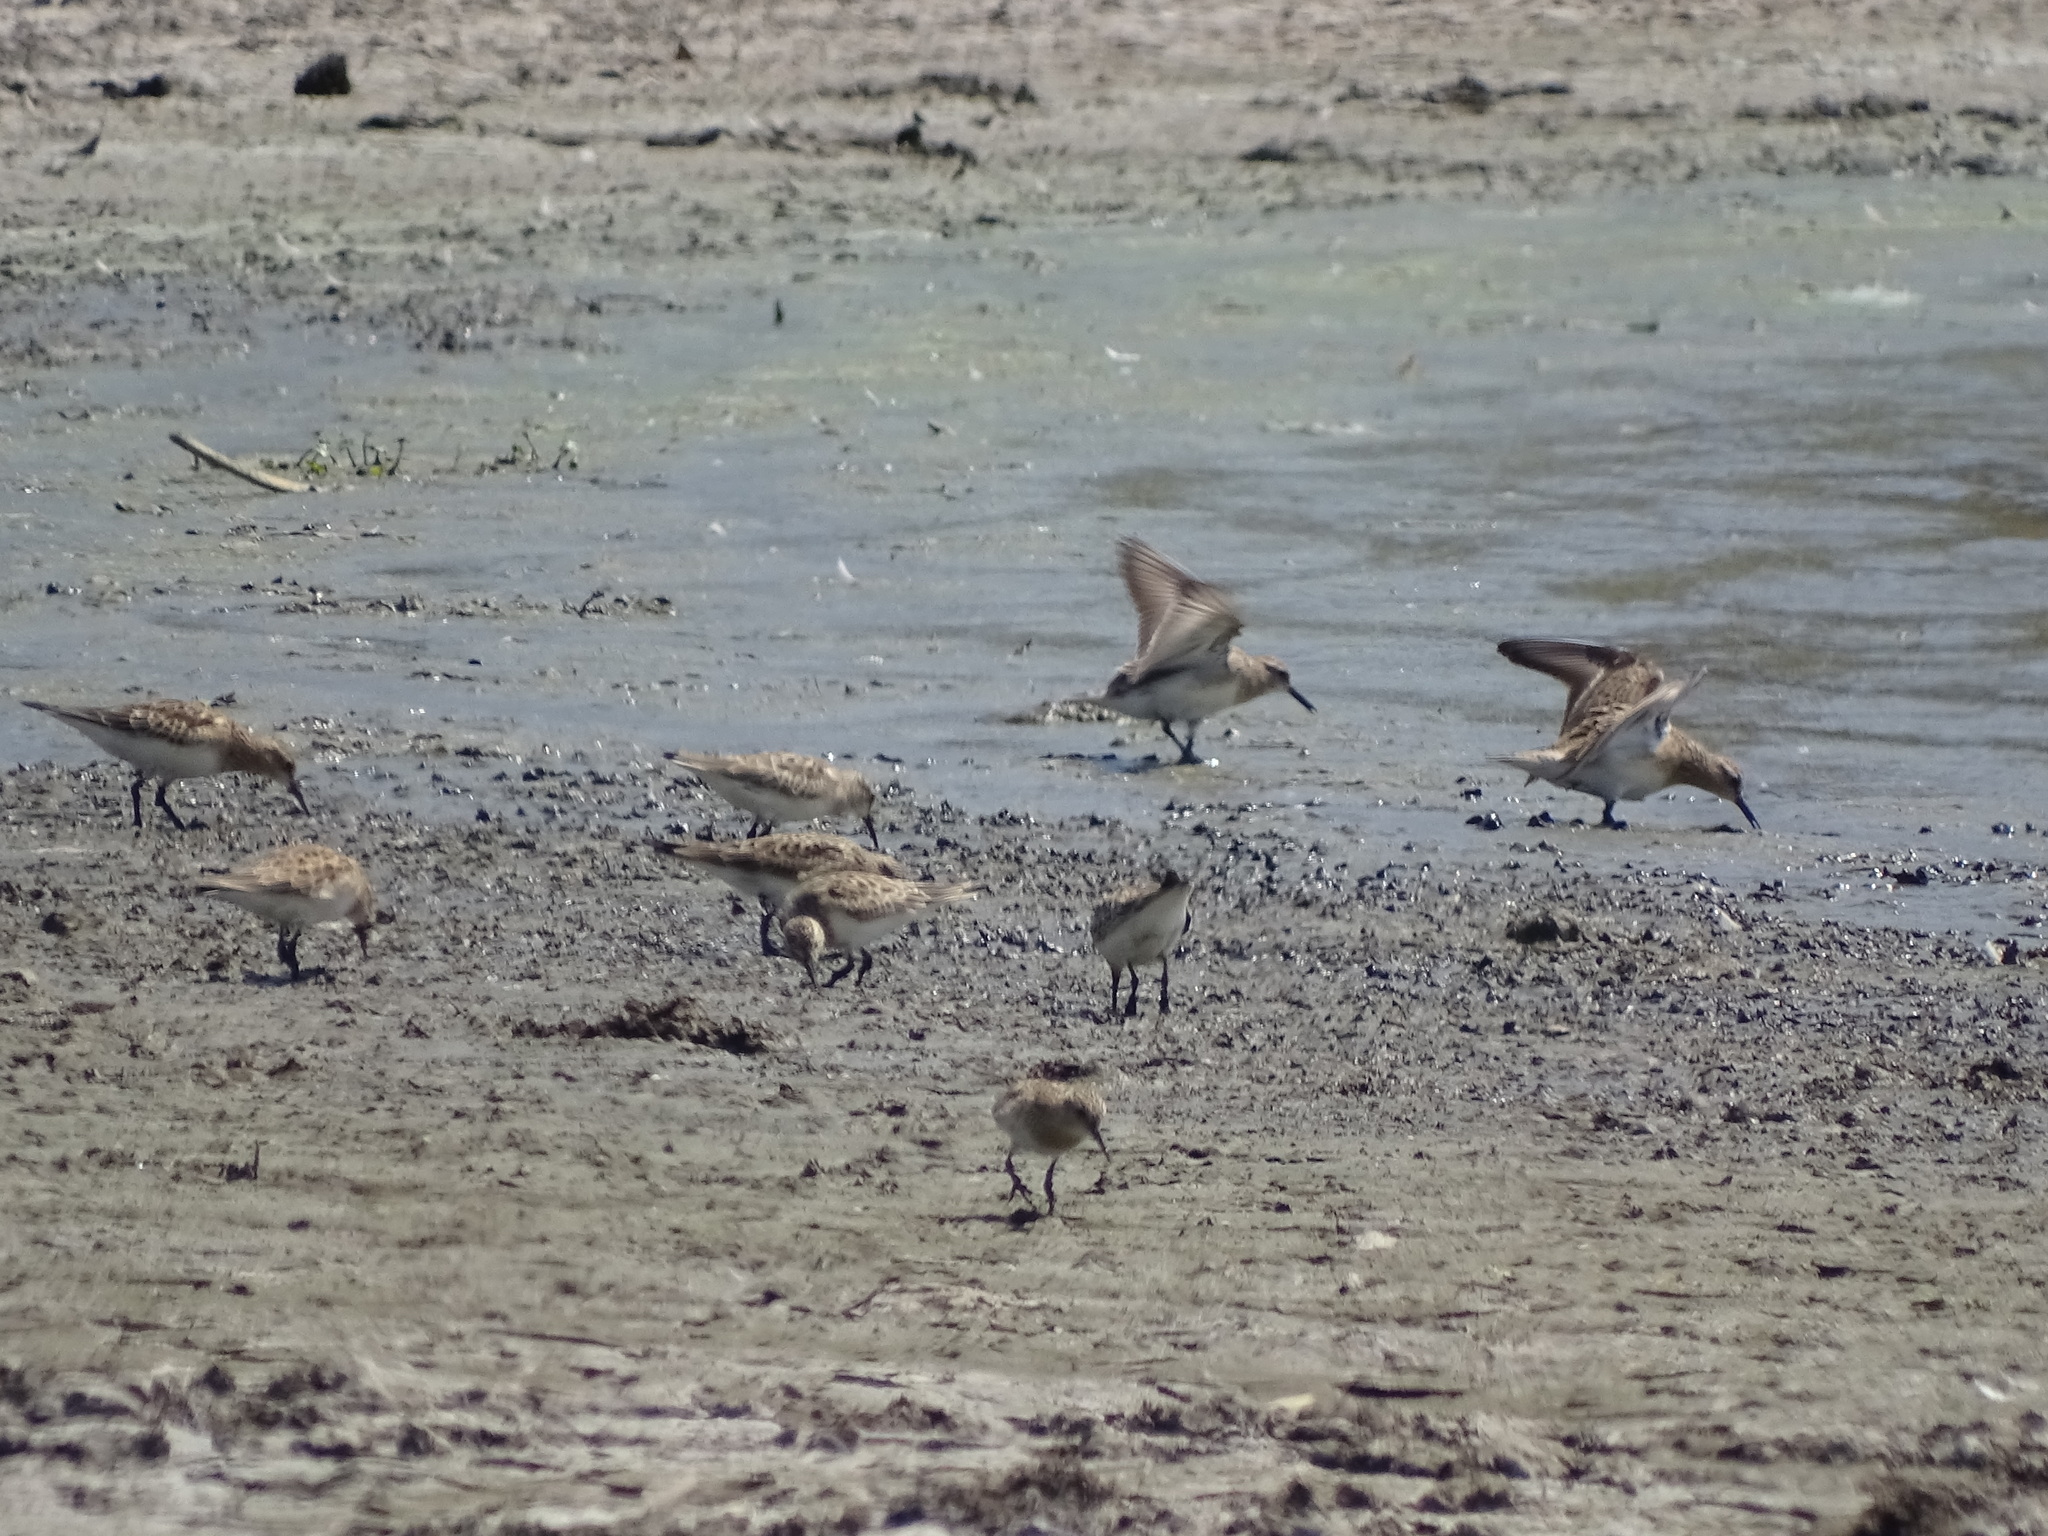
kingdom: Animalia
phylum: Chordata
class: Aves
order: Charadriiformes
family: Scolopacidae
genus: Calidris
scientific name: Calidris bairdii
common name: Baird's sandpiper
